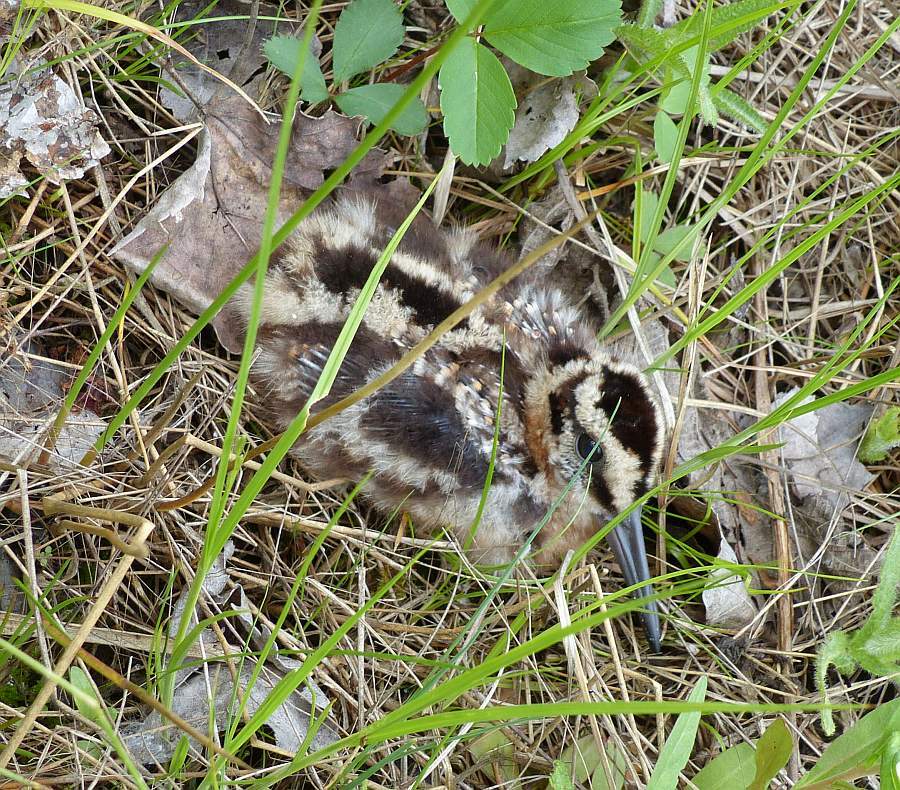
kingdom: Animalia
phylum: Chordata
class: Aves
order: Charadriiformes
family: Scolopacidae
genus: Scolopax
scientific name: Scolopax minor
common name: American woodcock
